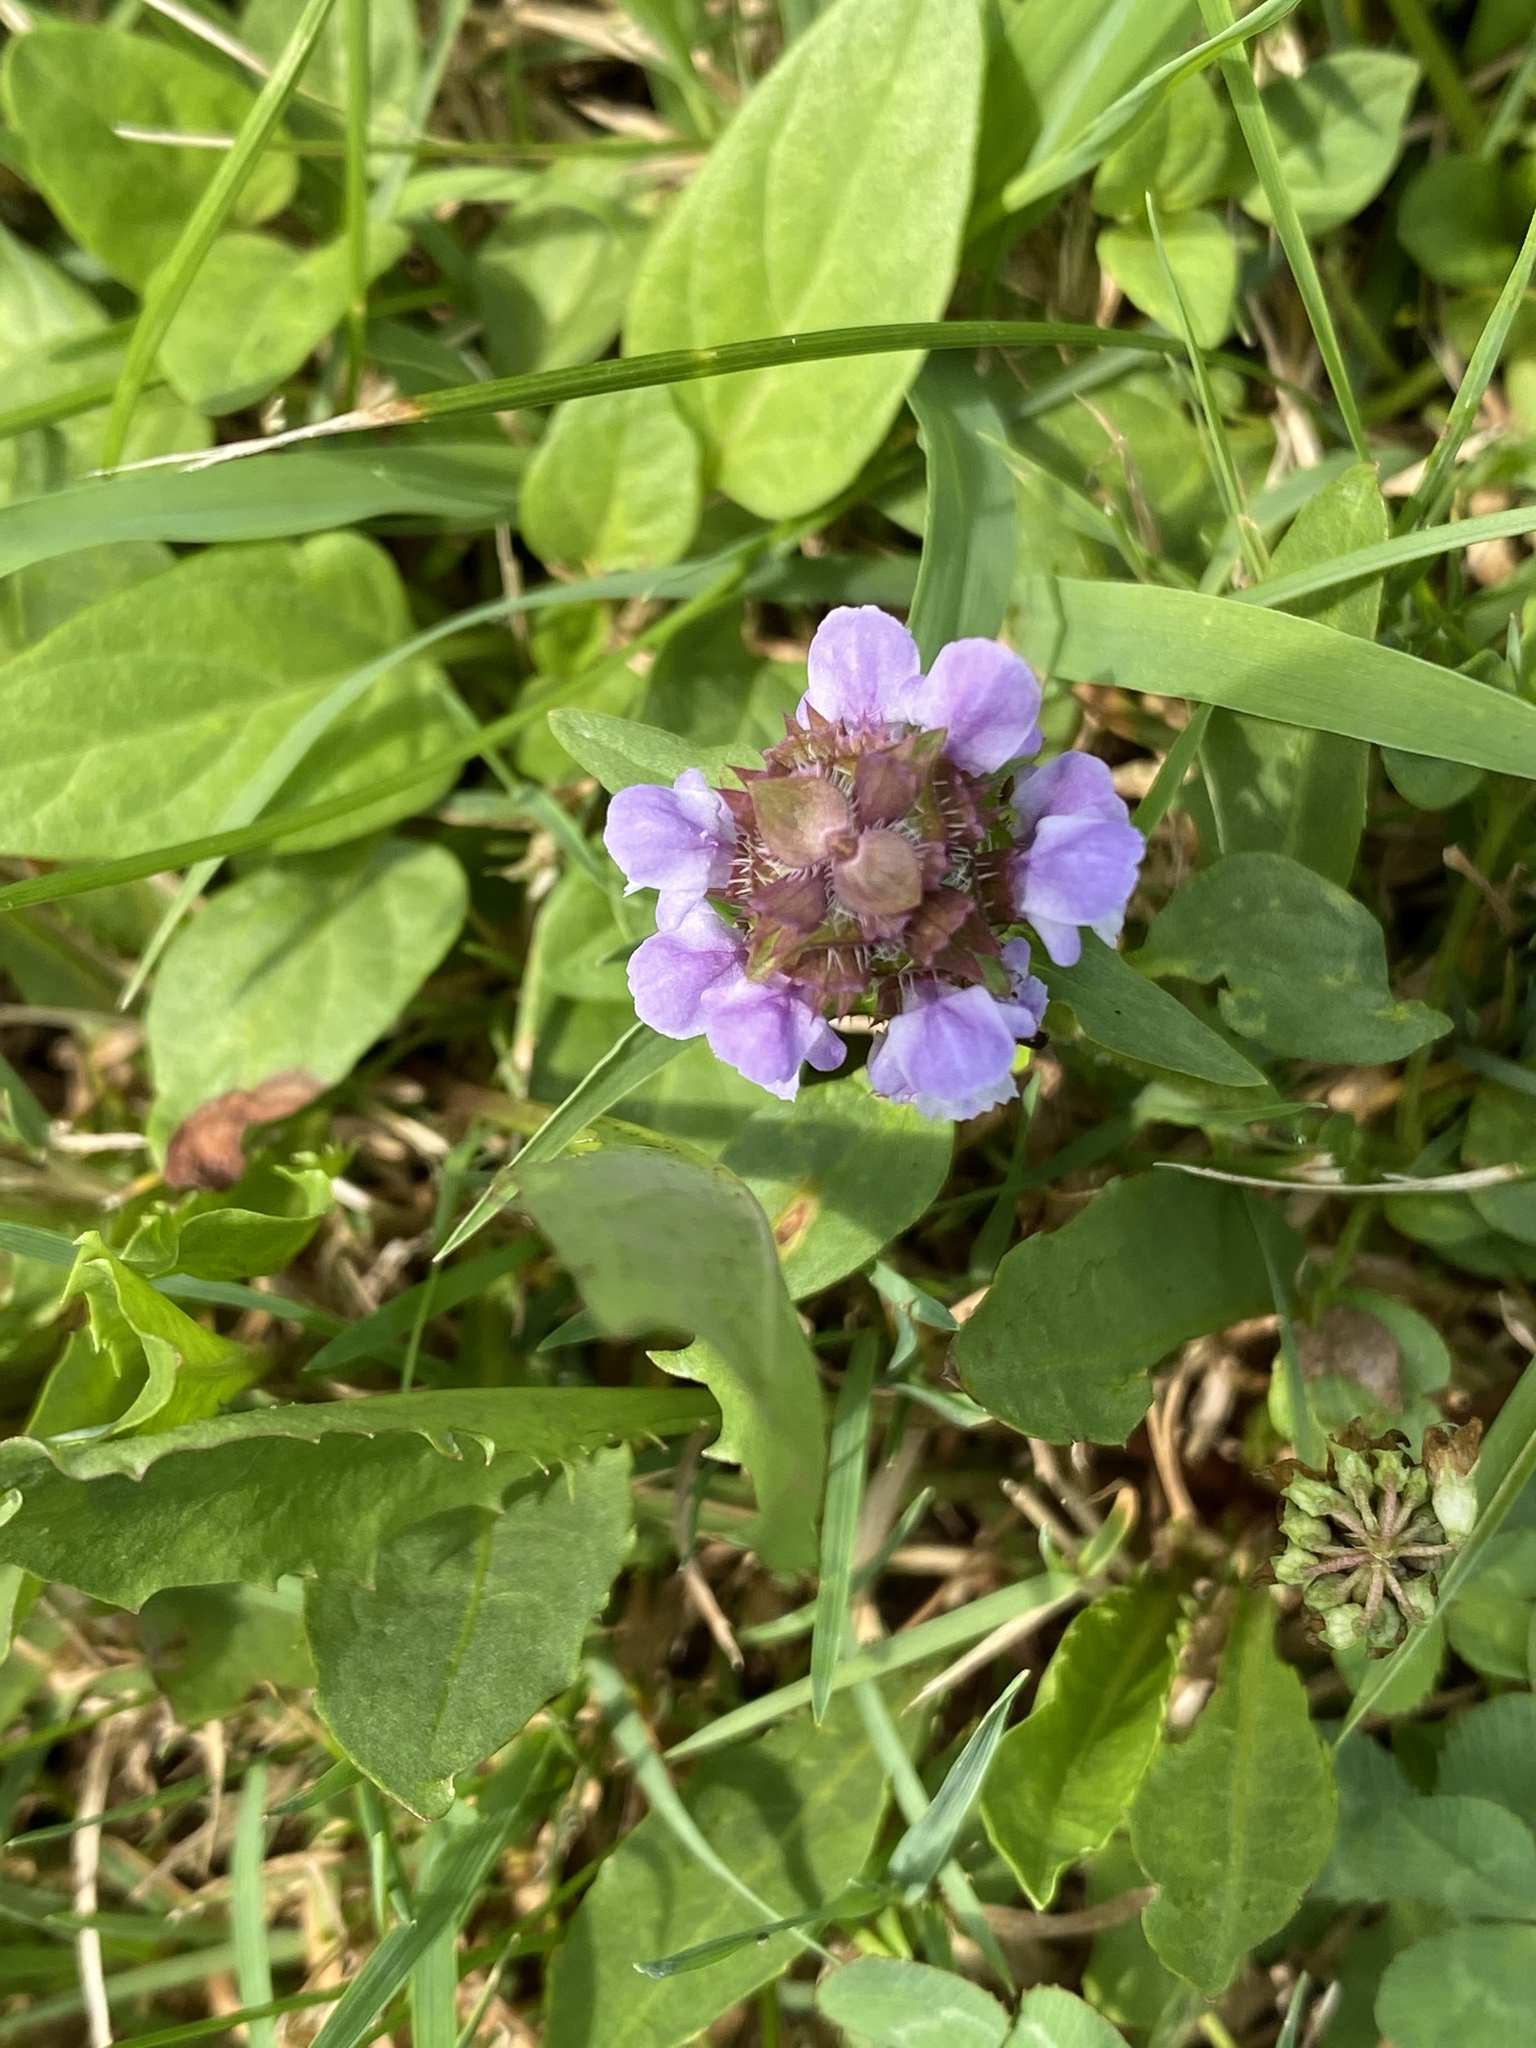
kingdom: Plantae
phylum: Tracheophyta
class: Magnoliopsida
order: Lamiales
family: Lamiaceae
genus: Prunella
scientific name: Prunella vulgaris
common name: Heal-all
